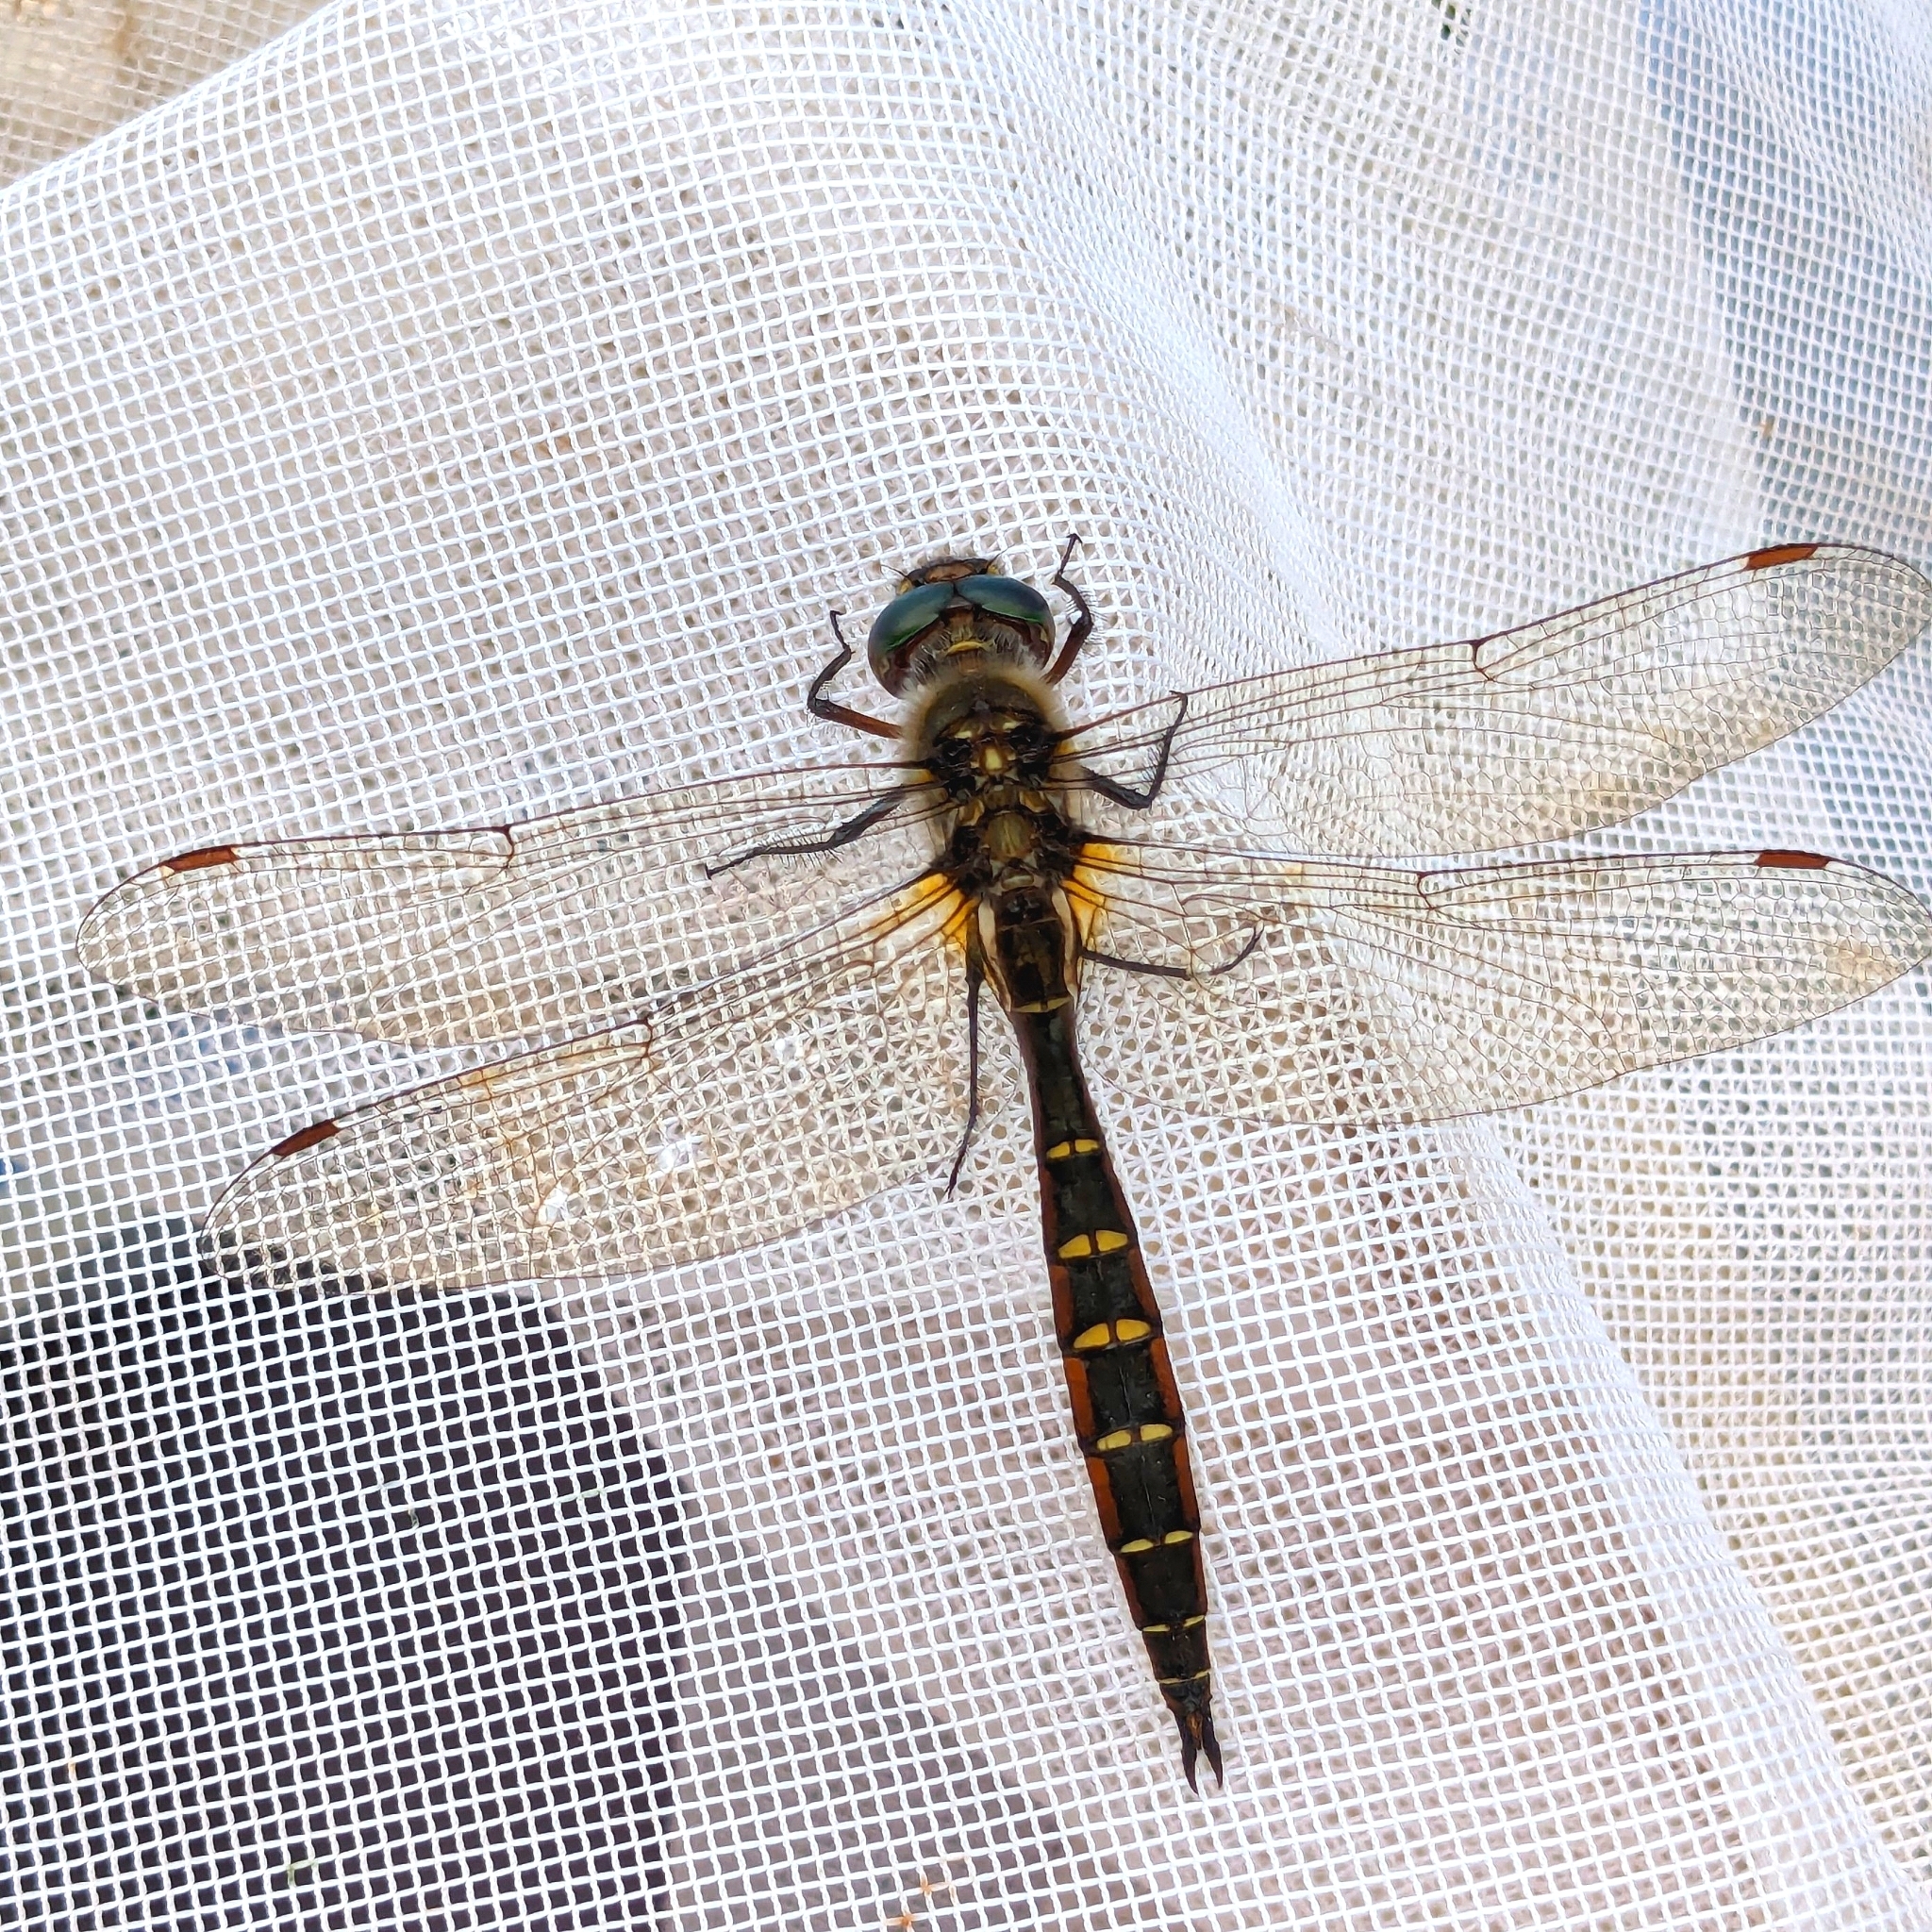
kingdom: Animalia
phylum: Arthropoda
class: Insecta
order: Odonata
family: Corduliidae
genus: Procordulia
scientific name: Procordulia smithii
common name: Ranger dragonfly
